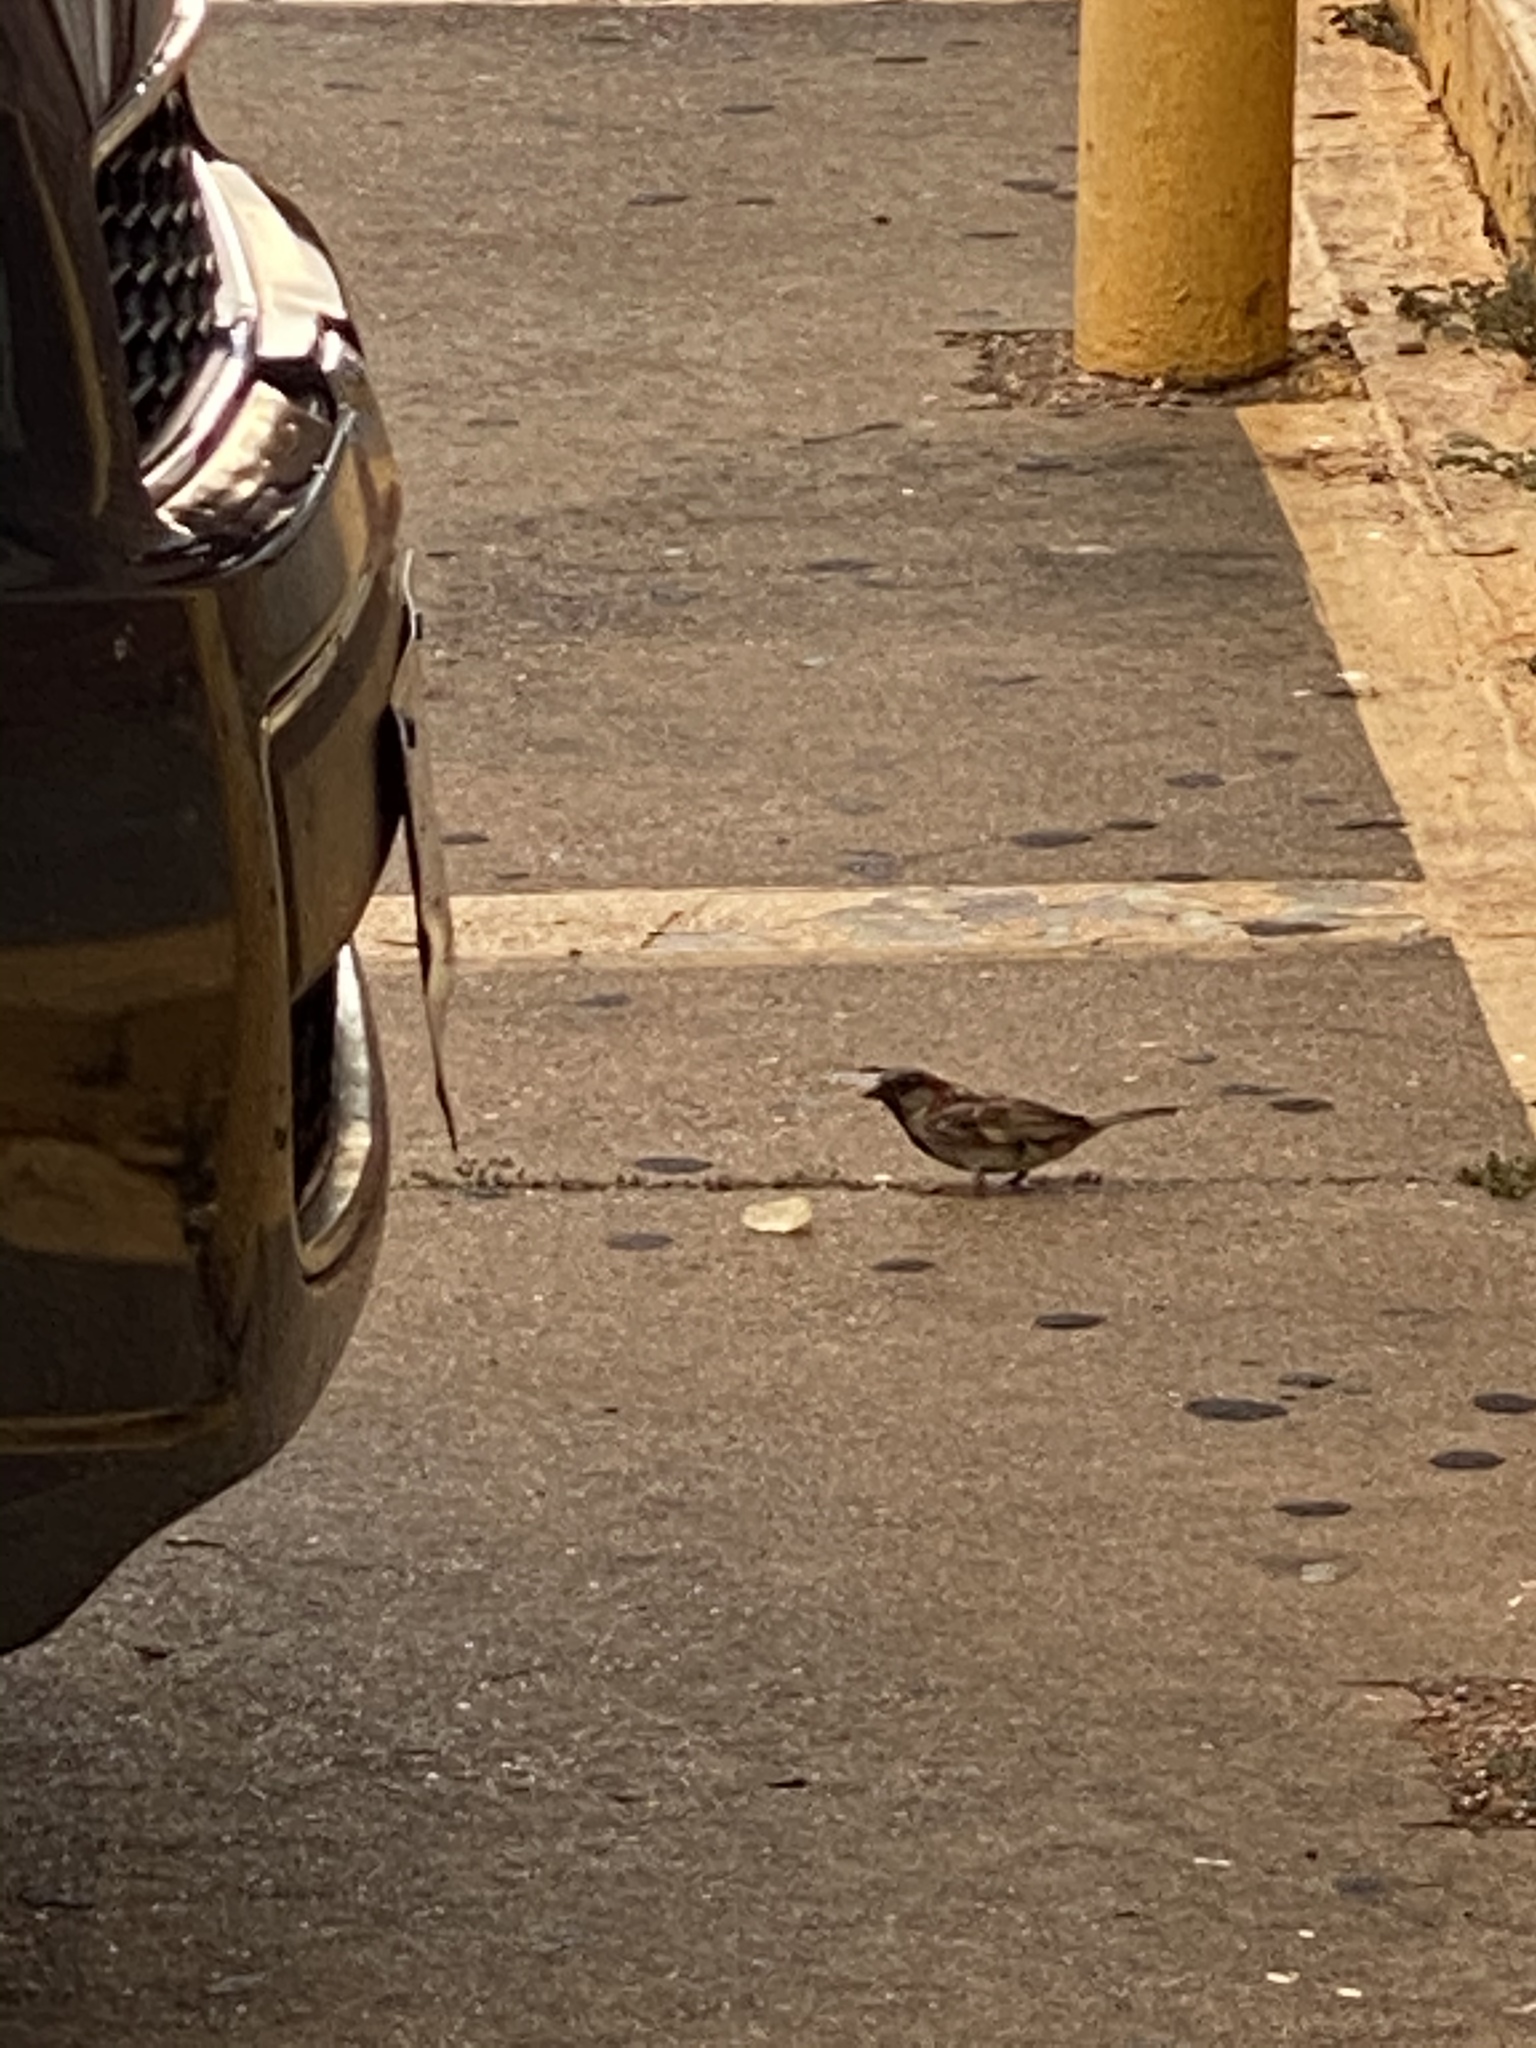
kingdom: Animalia
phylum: Chordata
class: Aves
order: Passeriformes
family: Passeridae
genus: Passer
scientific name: Passer domesticus
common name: House sparrow
